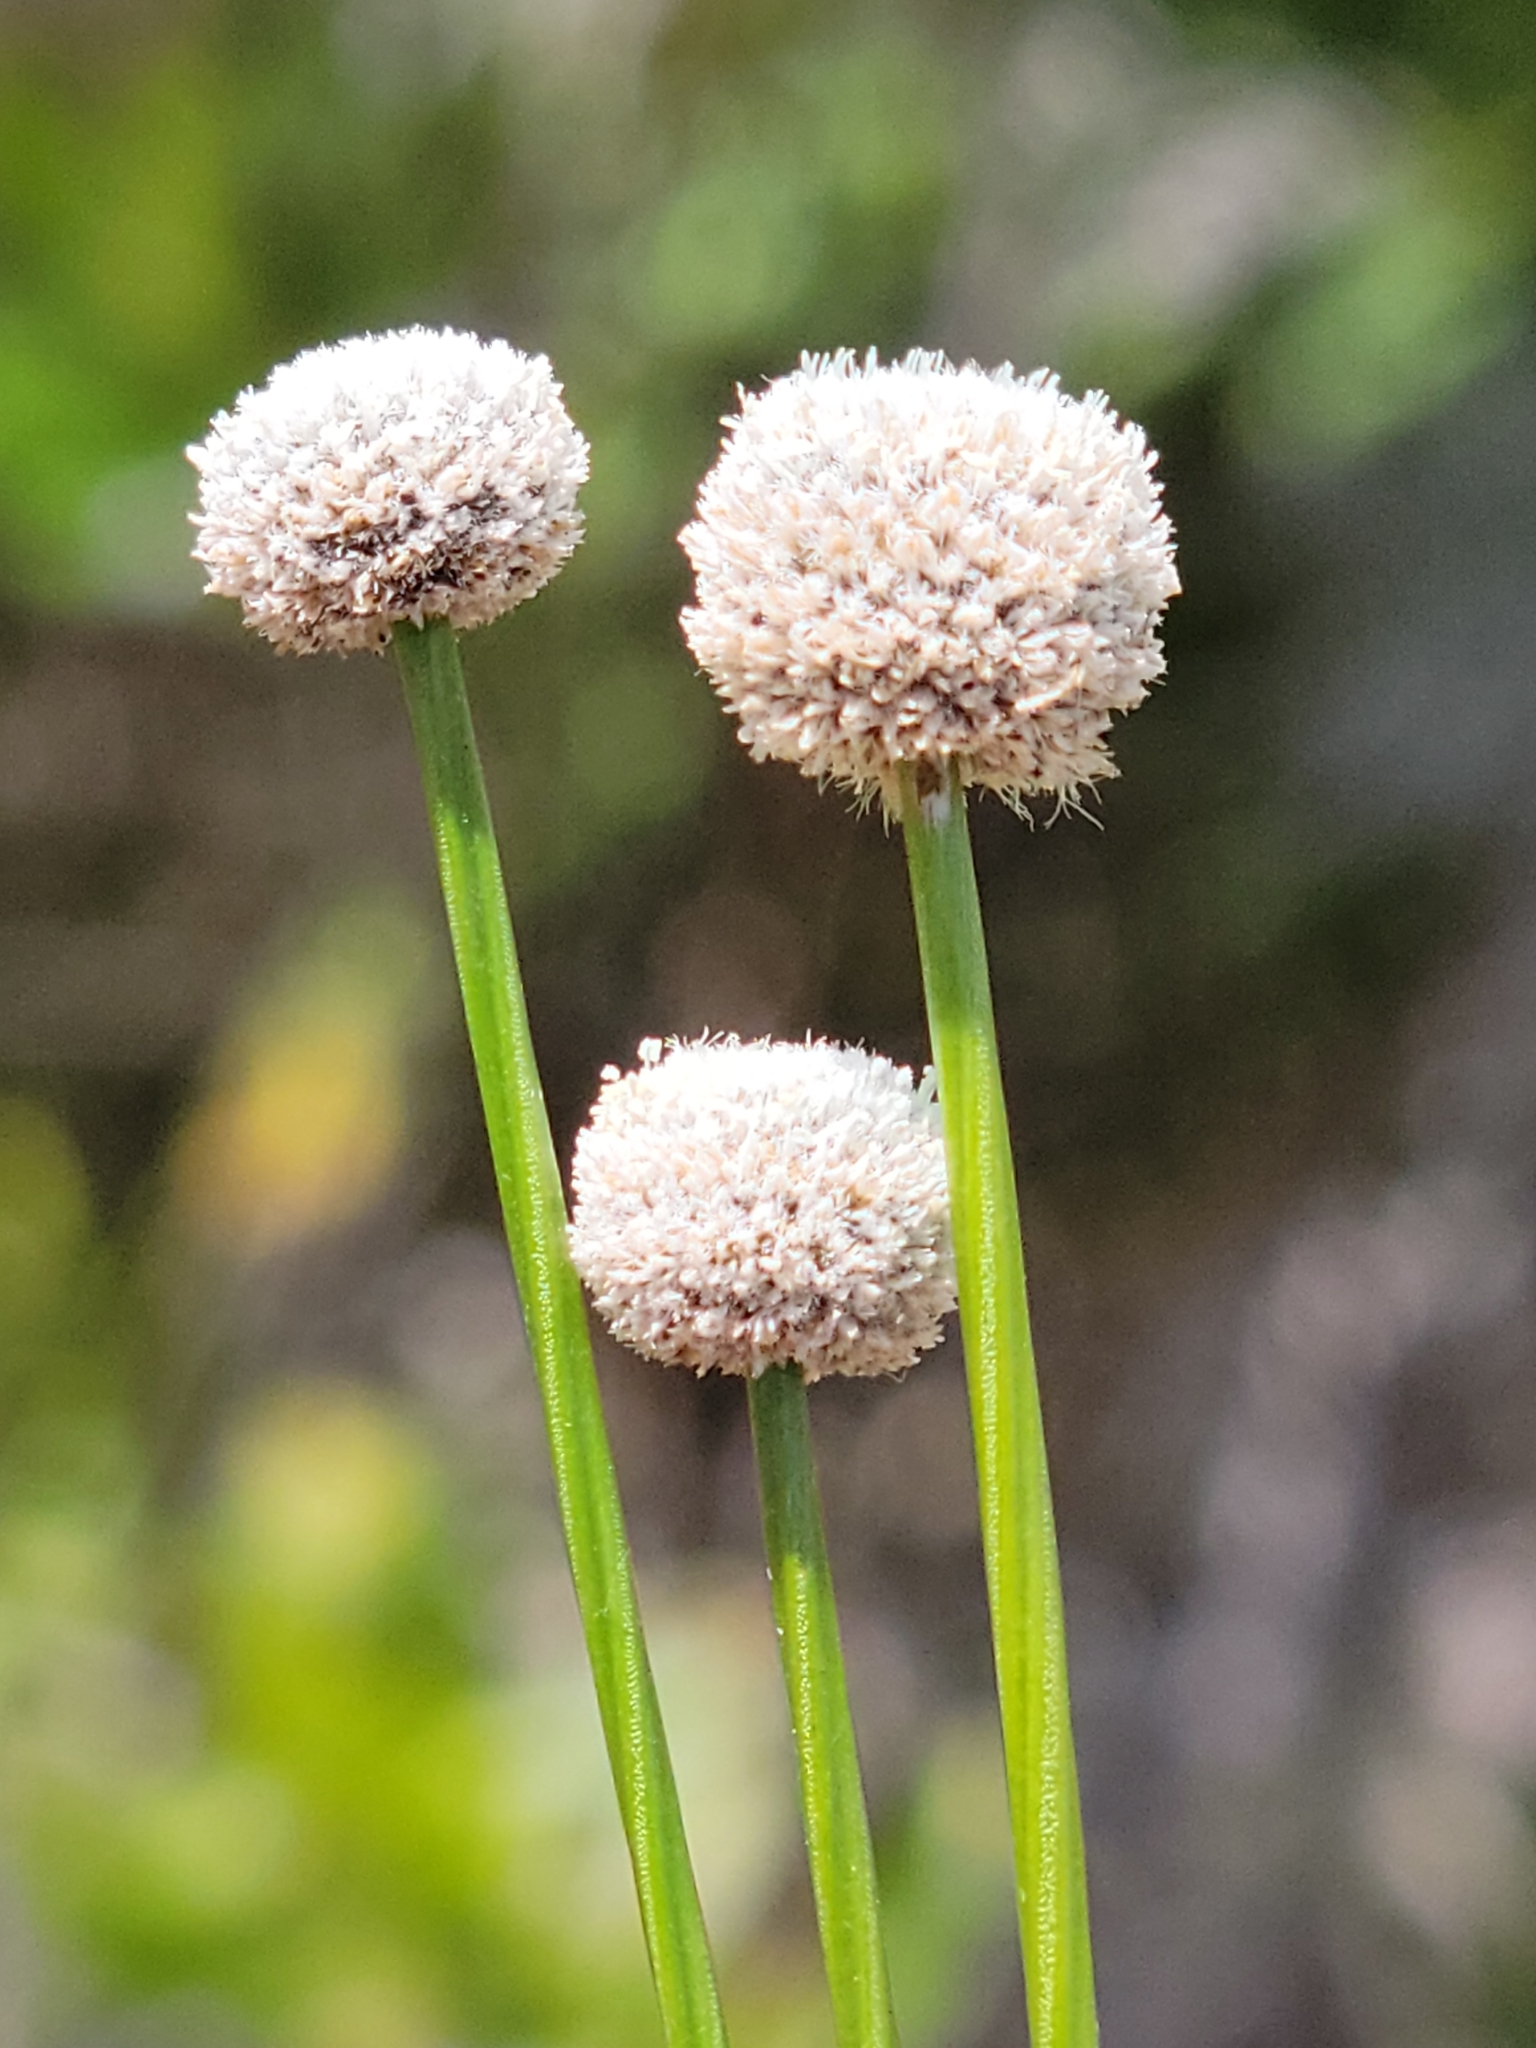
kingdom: Plantae
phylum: Tracheophyta
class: Liliopsida
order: Poales
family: Eriocaulaceae
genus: Paepalanthus
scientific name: Paepalanthus anceps
